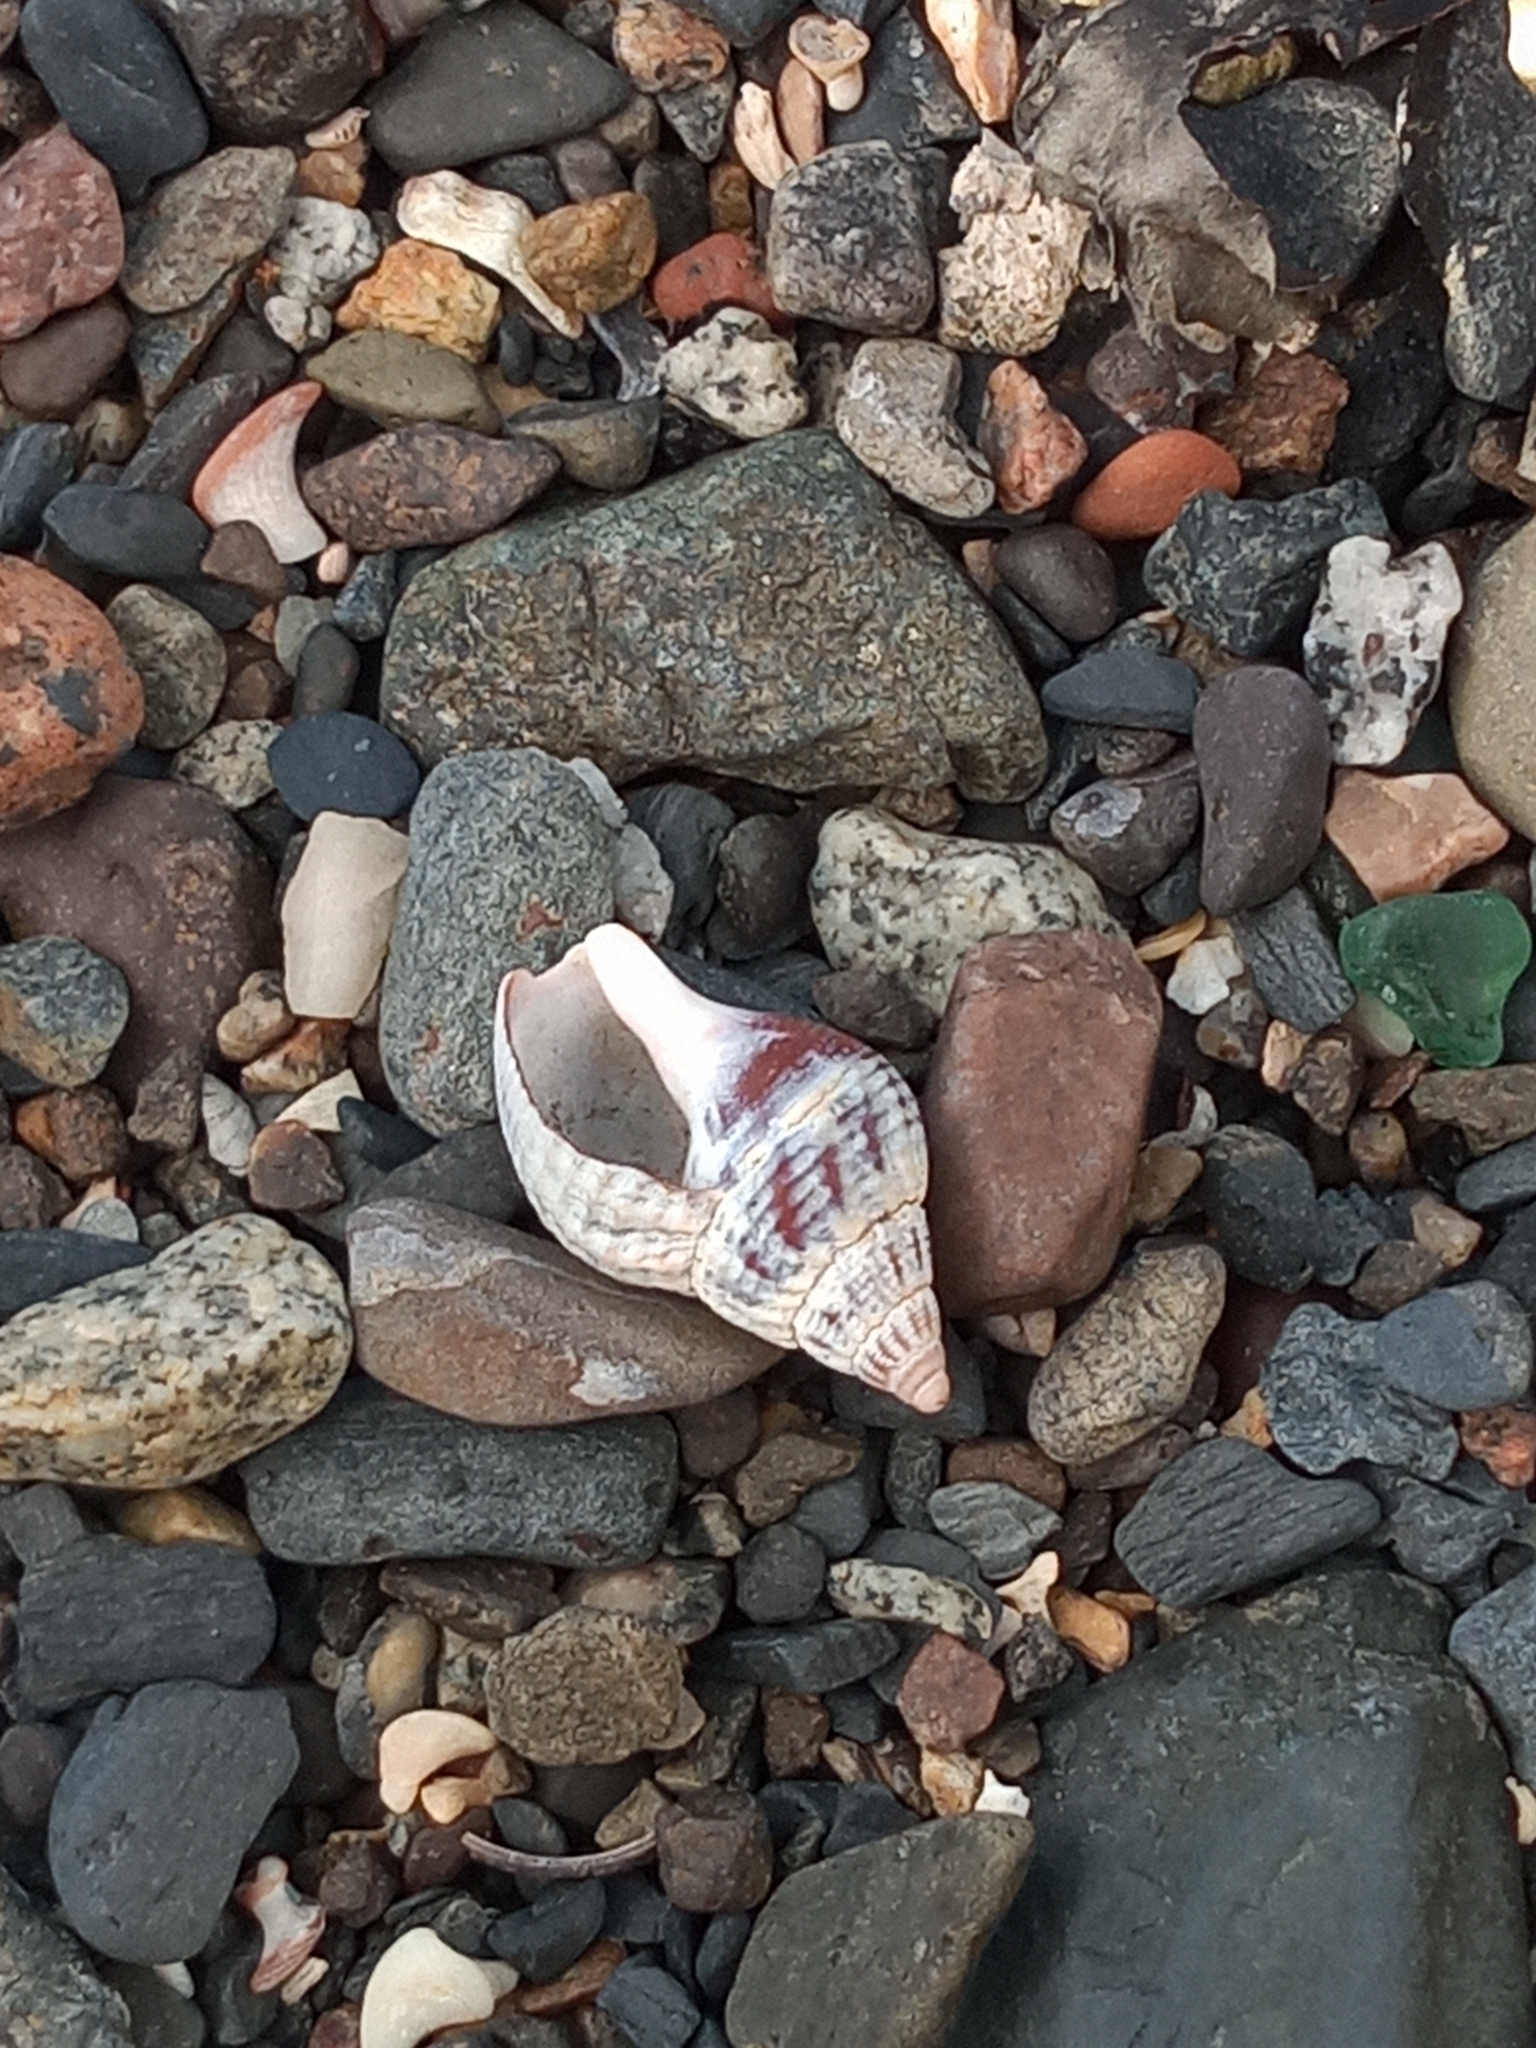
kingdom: Animalia
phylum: Mollusca
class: Gastropoda
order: Neogastropoda
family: Buccinidae
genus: Buccinum
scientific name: Buccinum undatum
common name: Common whelk
